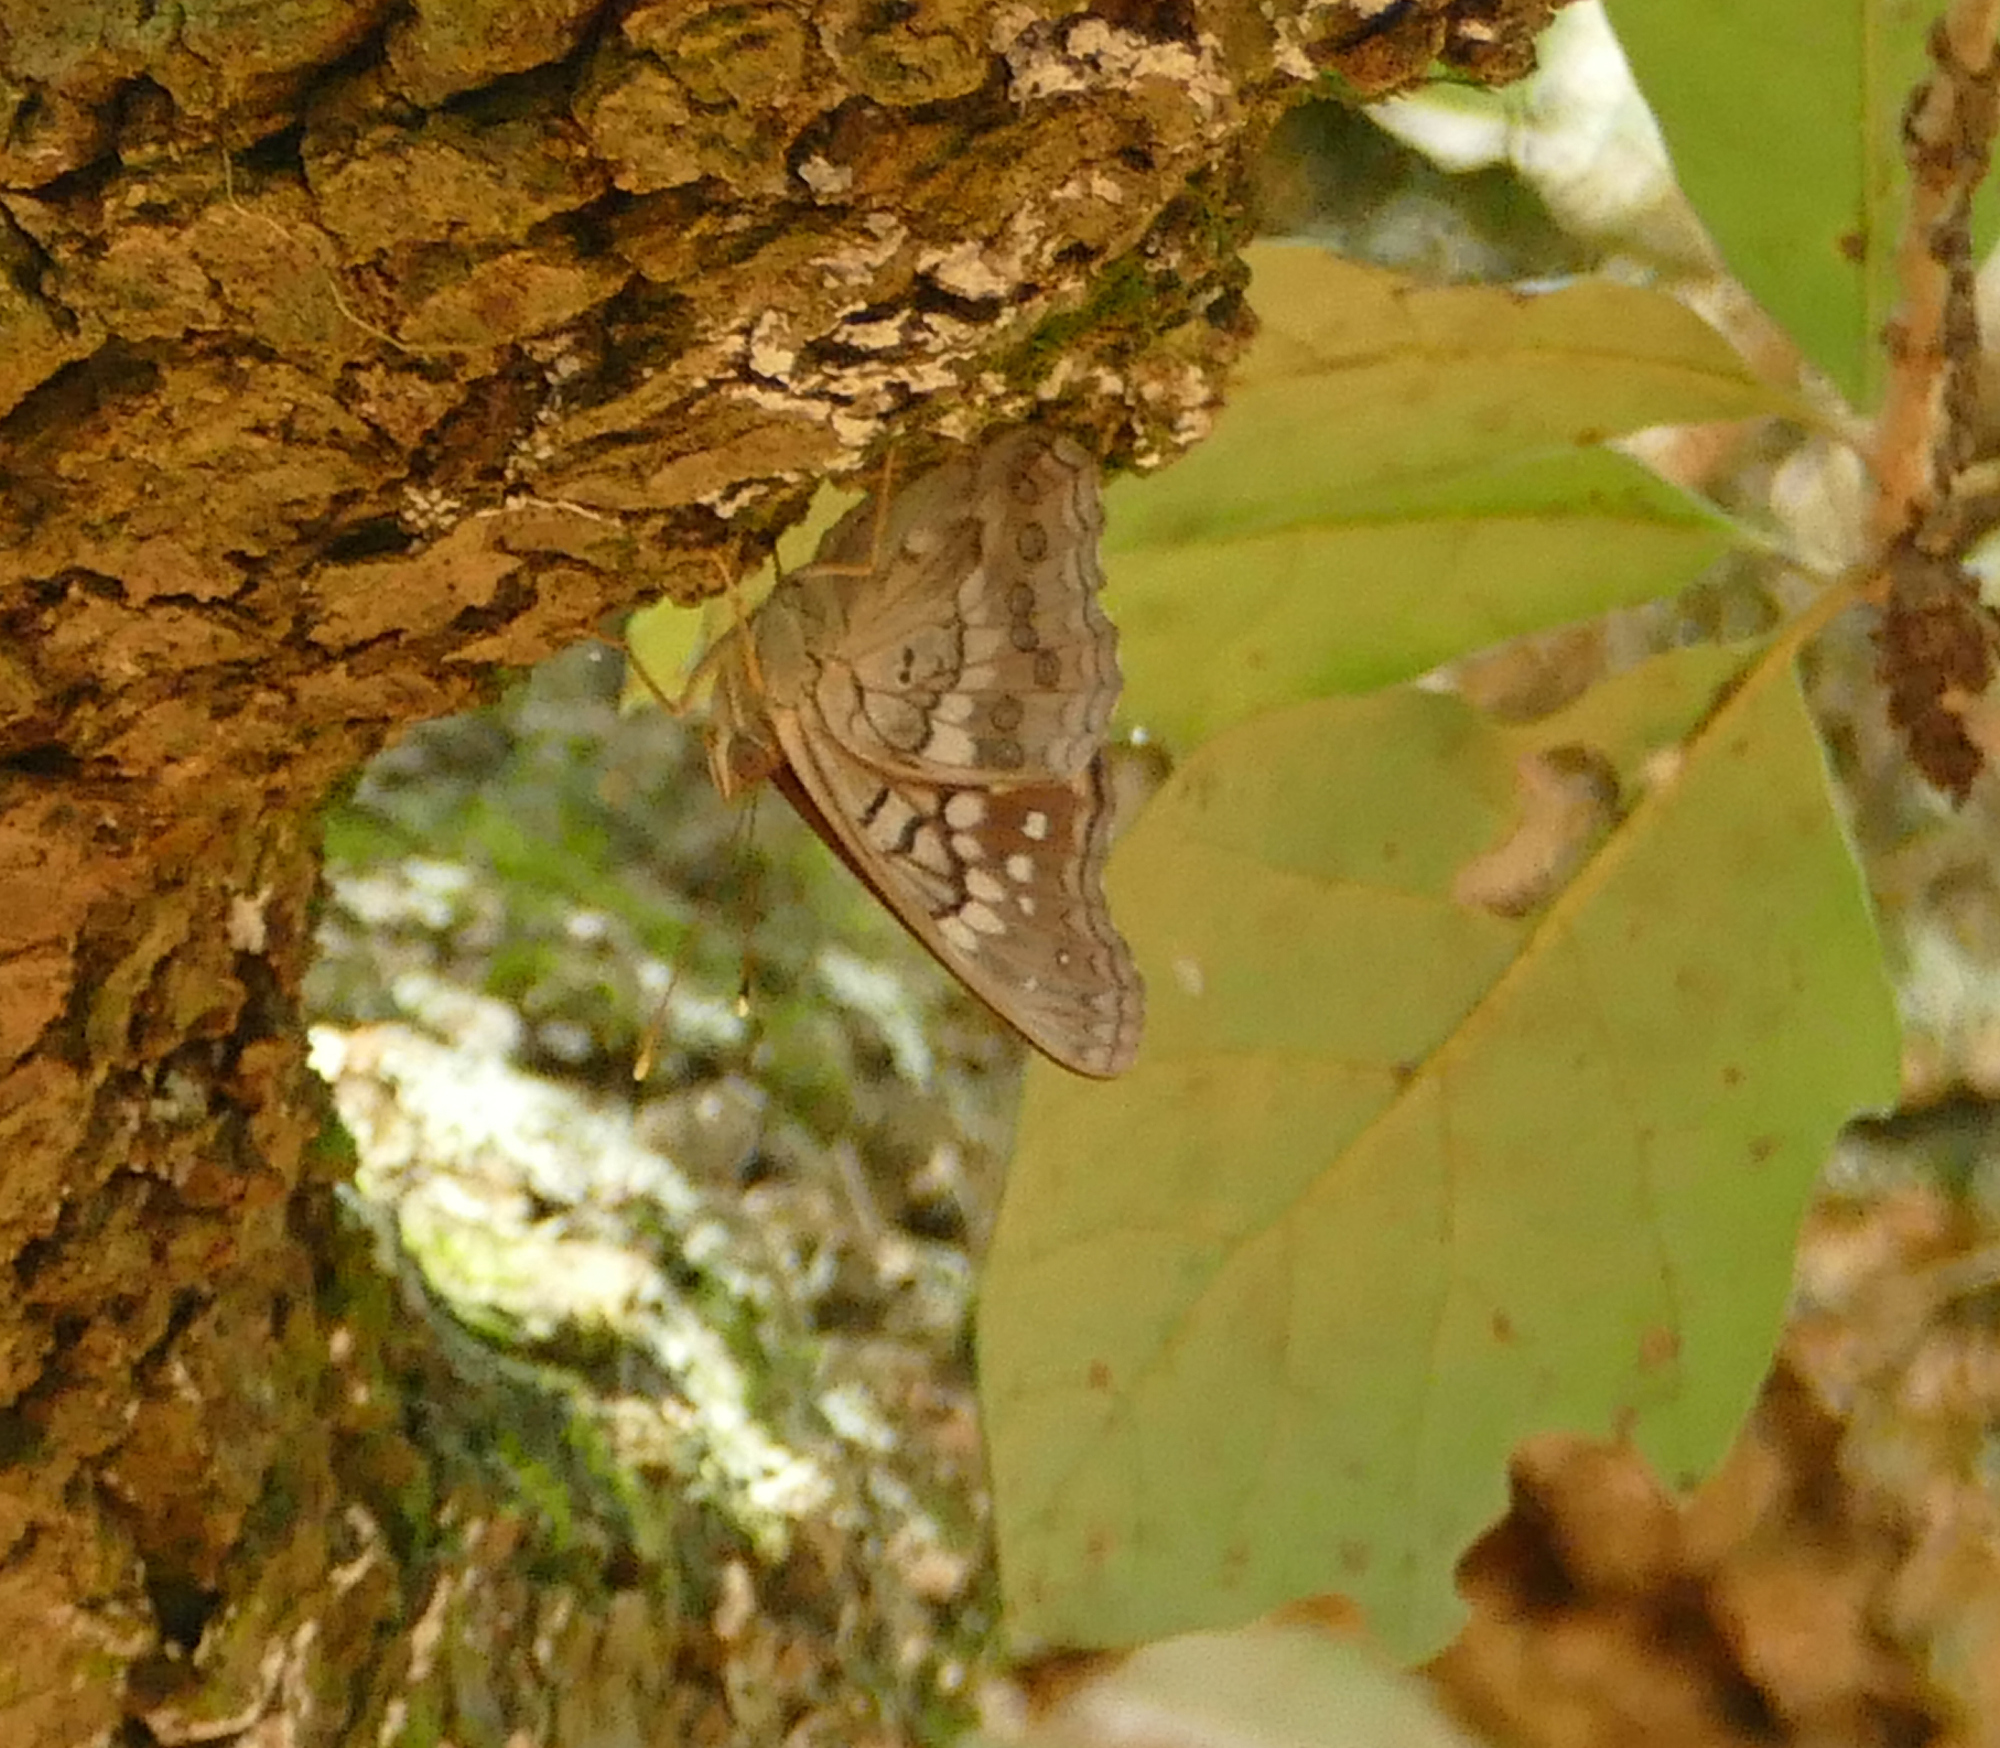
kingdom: Animalia
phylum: Arthropoda
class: Insecta
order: Lepidoptera
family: Nymphalidae
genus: Asterocampa
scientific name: Asterocampa clyton
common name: Tawny emperor
